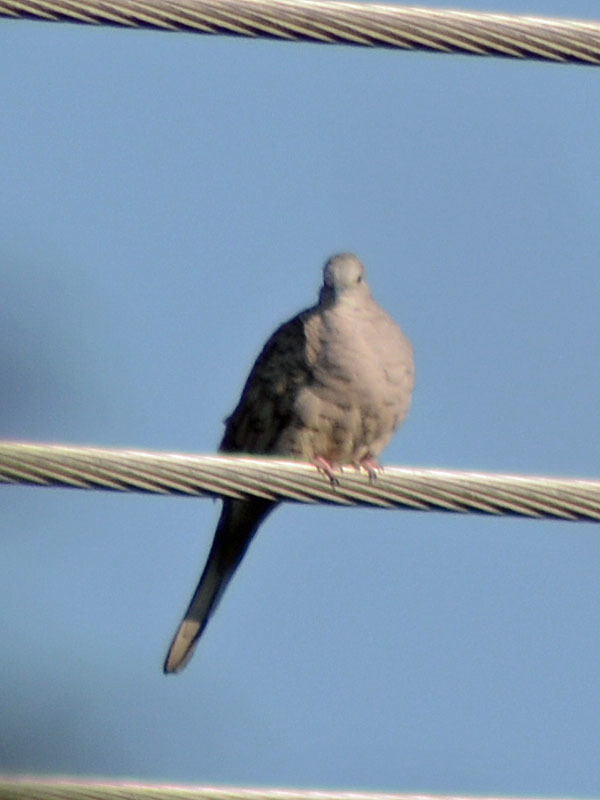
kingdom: Animalia
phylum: Chordata
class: Aves
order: Columbiformes
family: Columbidae
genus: Columbina
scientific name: Columbina inca
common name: Inca dove
